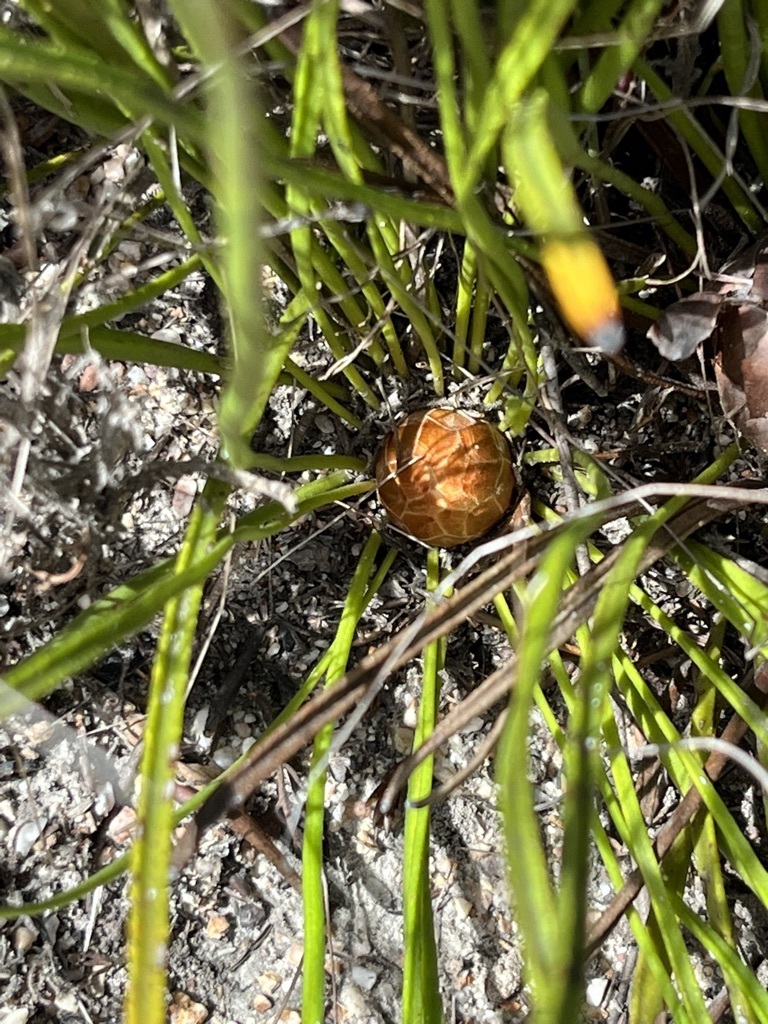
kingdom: Plantae
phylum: Tracheophyta
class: Magnoliopsida
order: Proteales
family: Proteaceae
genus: Protea
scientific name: Protea scabra
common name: Sandpaper-leaf sugarbush
